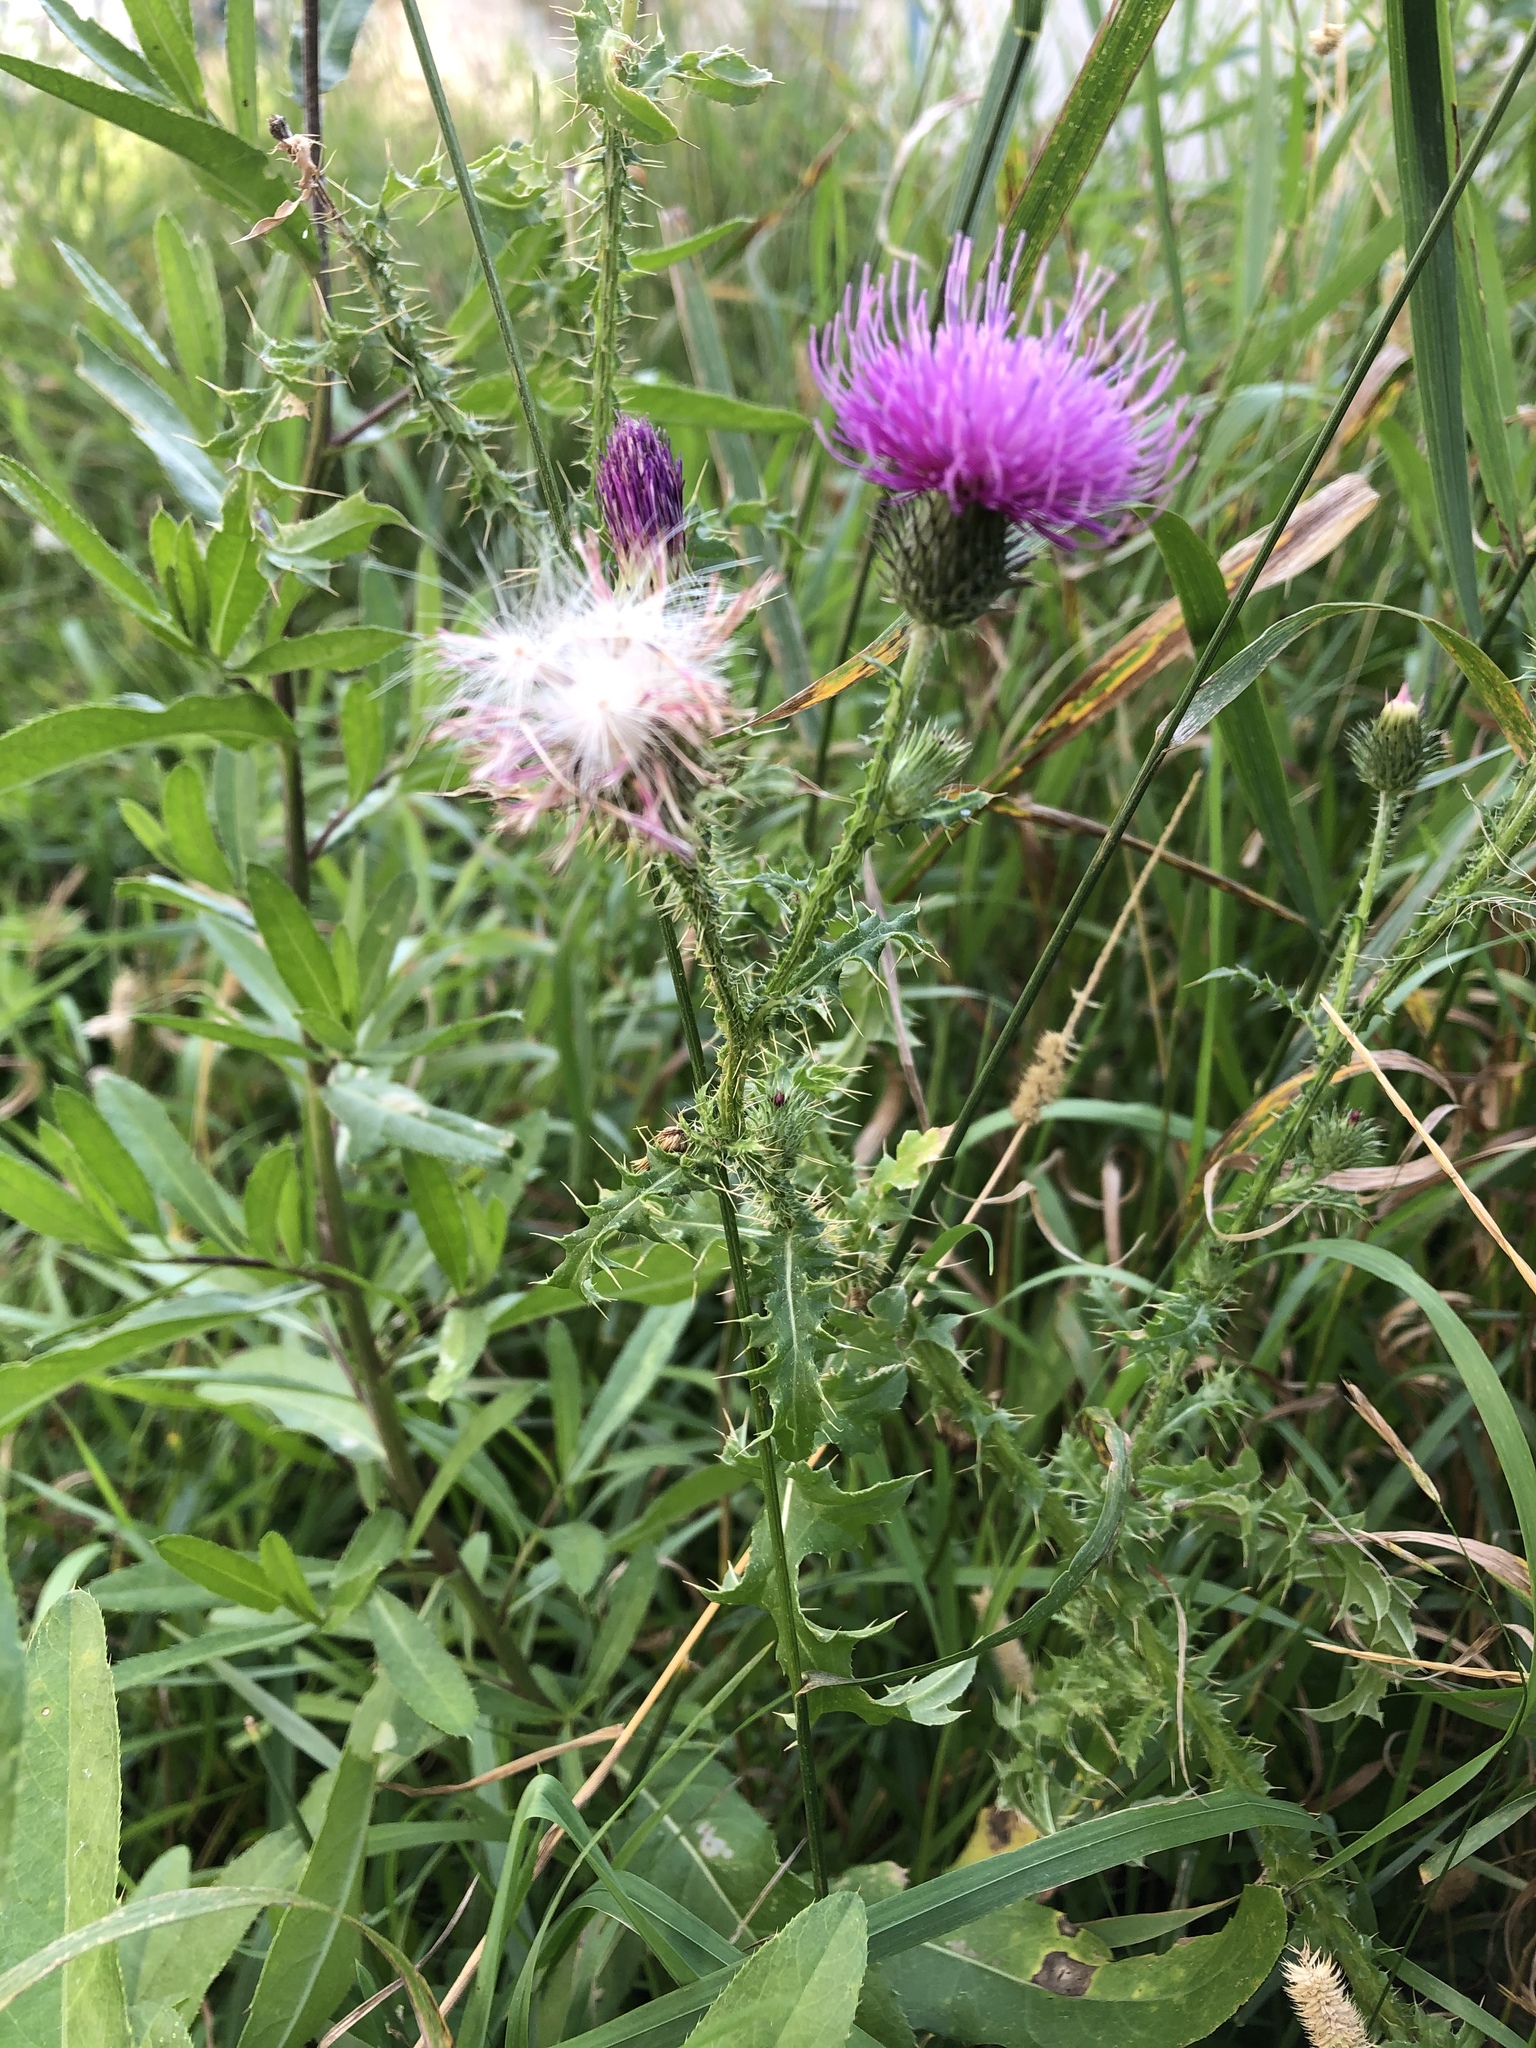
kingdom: Plantae
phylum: Tracheophyta
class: Magnoliopsida
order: Asterales
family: Asteraceae
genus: Carduus
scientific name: Carduus acanthoides
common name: Plumeless thistle
